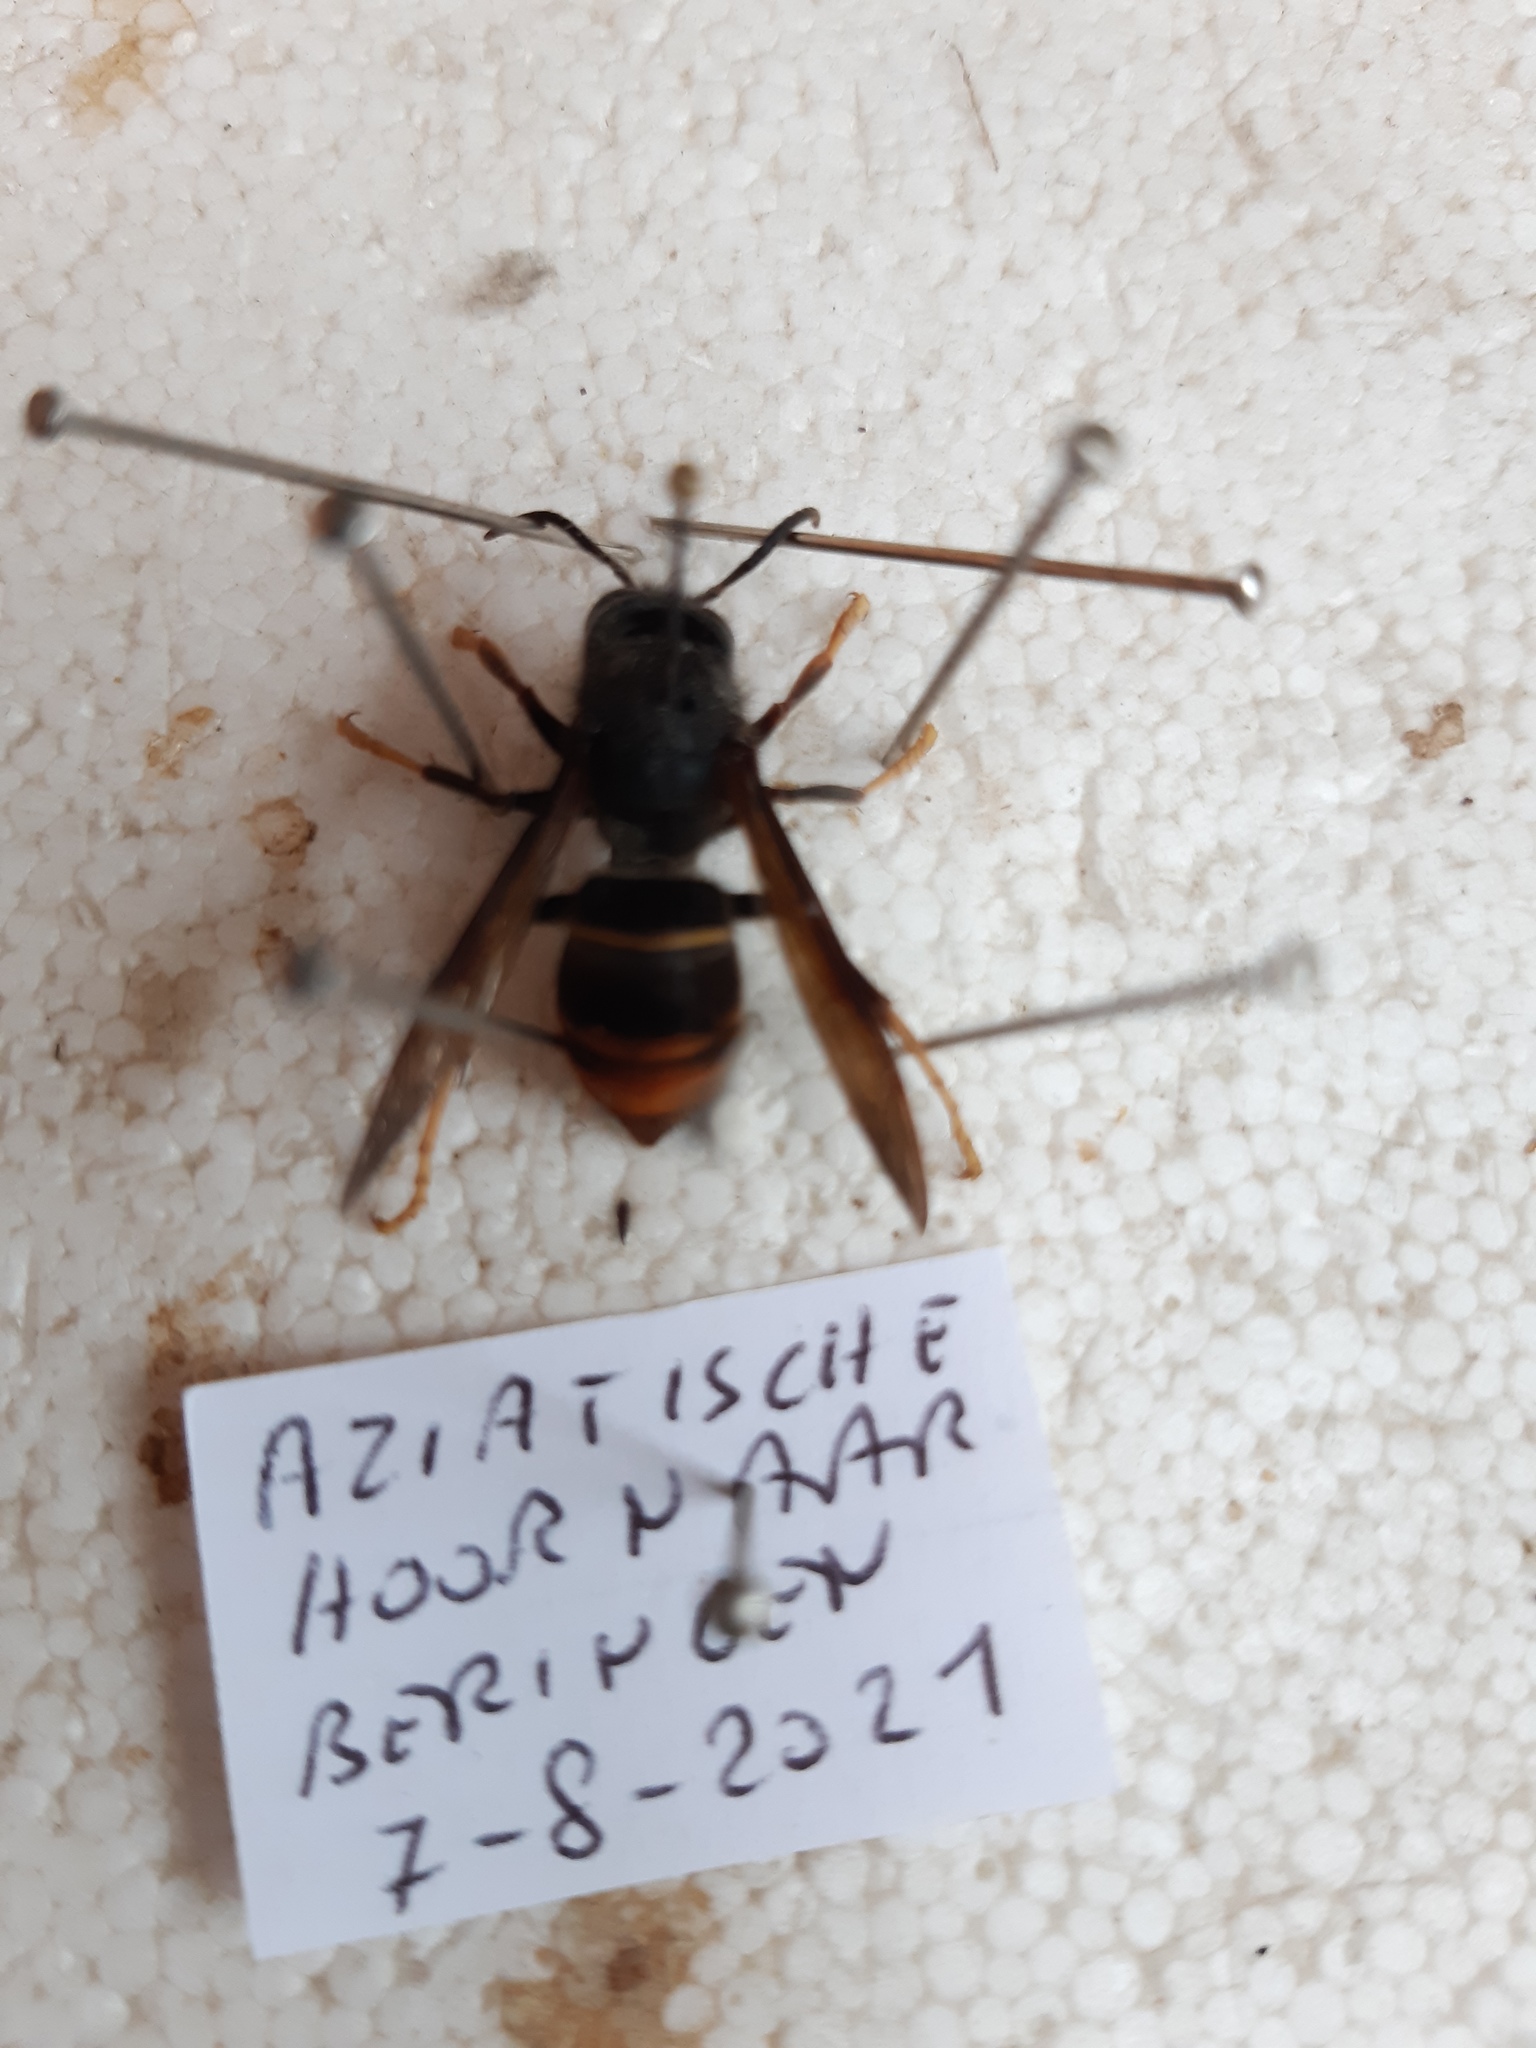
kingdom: Animalia
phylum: Arthropoda
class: Insecta
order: Hymenoptera
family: Vespidae
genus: Vespa
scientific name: Vespa velutina
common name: Asian hornet
